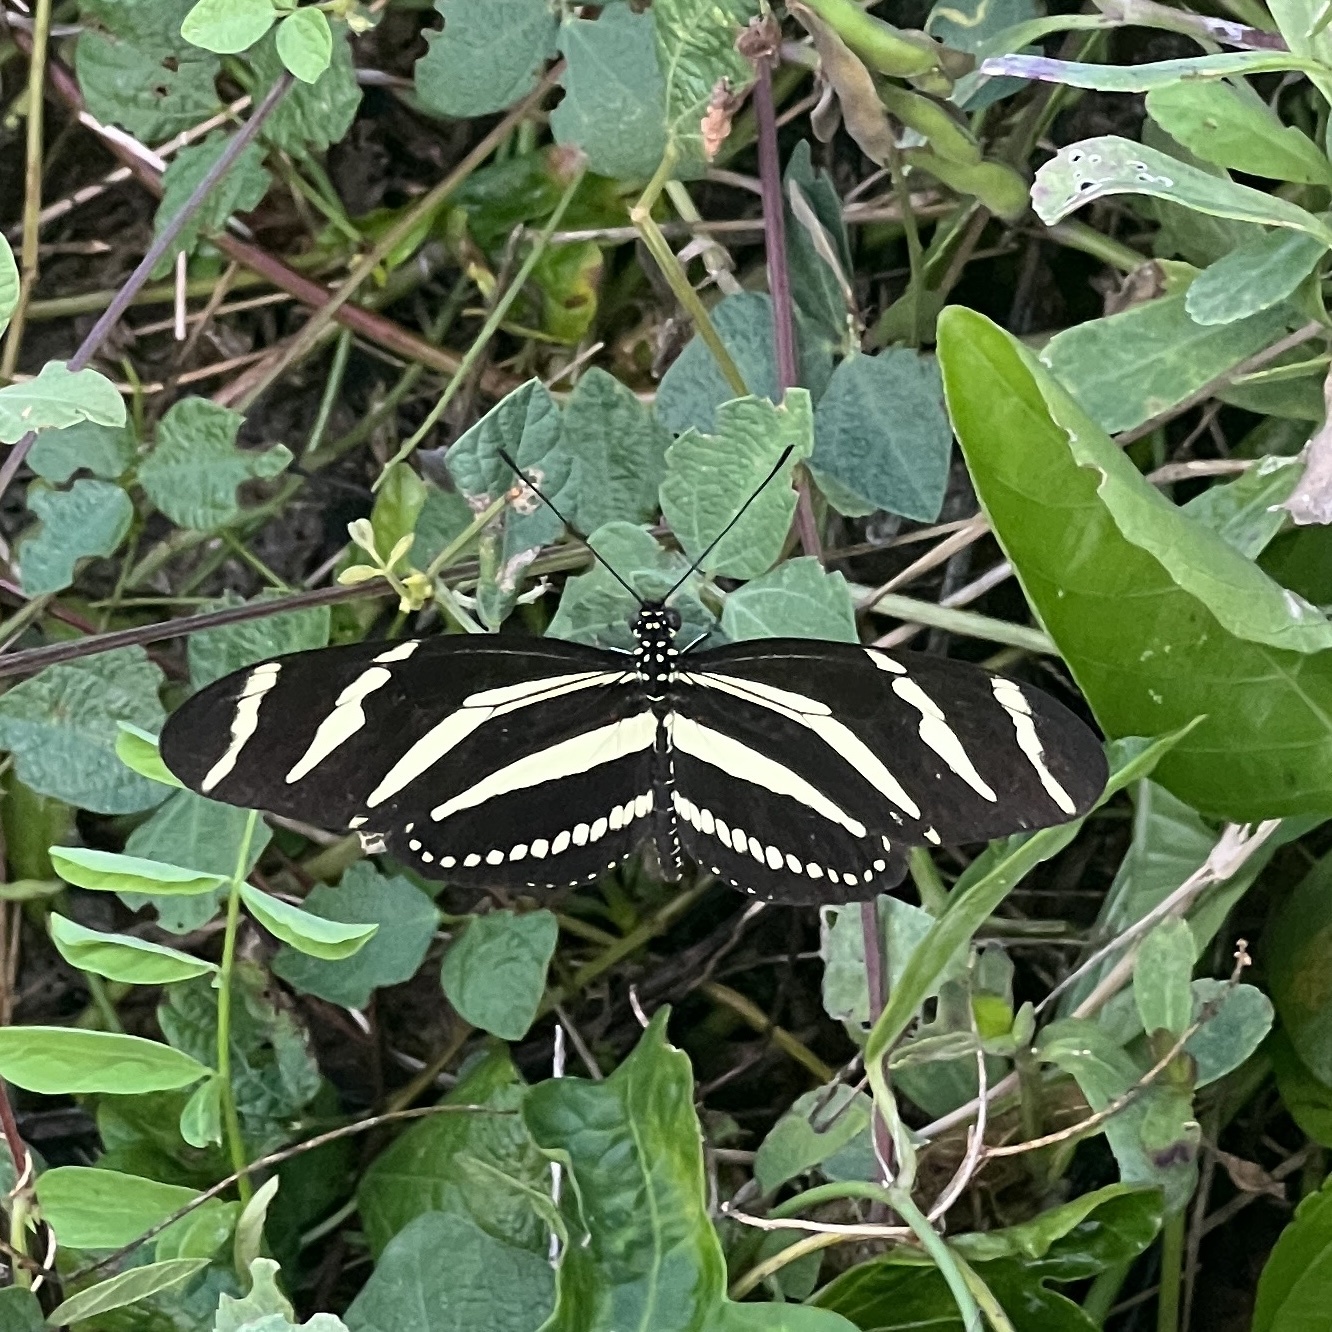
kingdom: Animalia
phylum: Arthropoda
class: Insecta
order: Lepidoptera
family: Nymphalidae
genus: Heliconius
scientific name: Heliconius charithonia
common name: Zebra long wing
